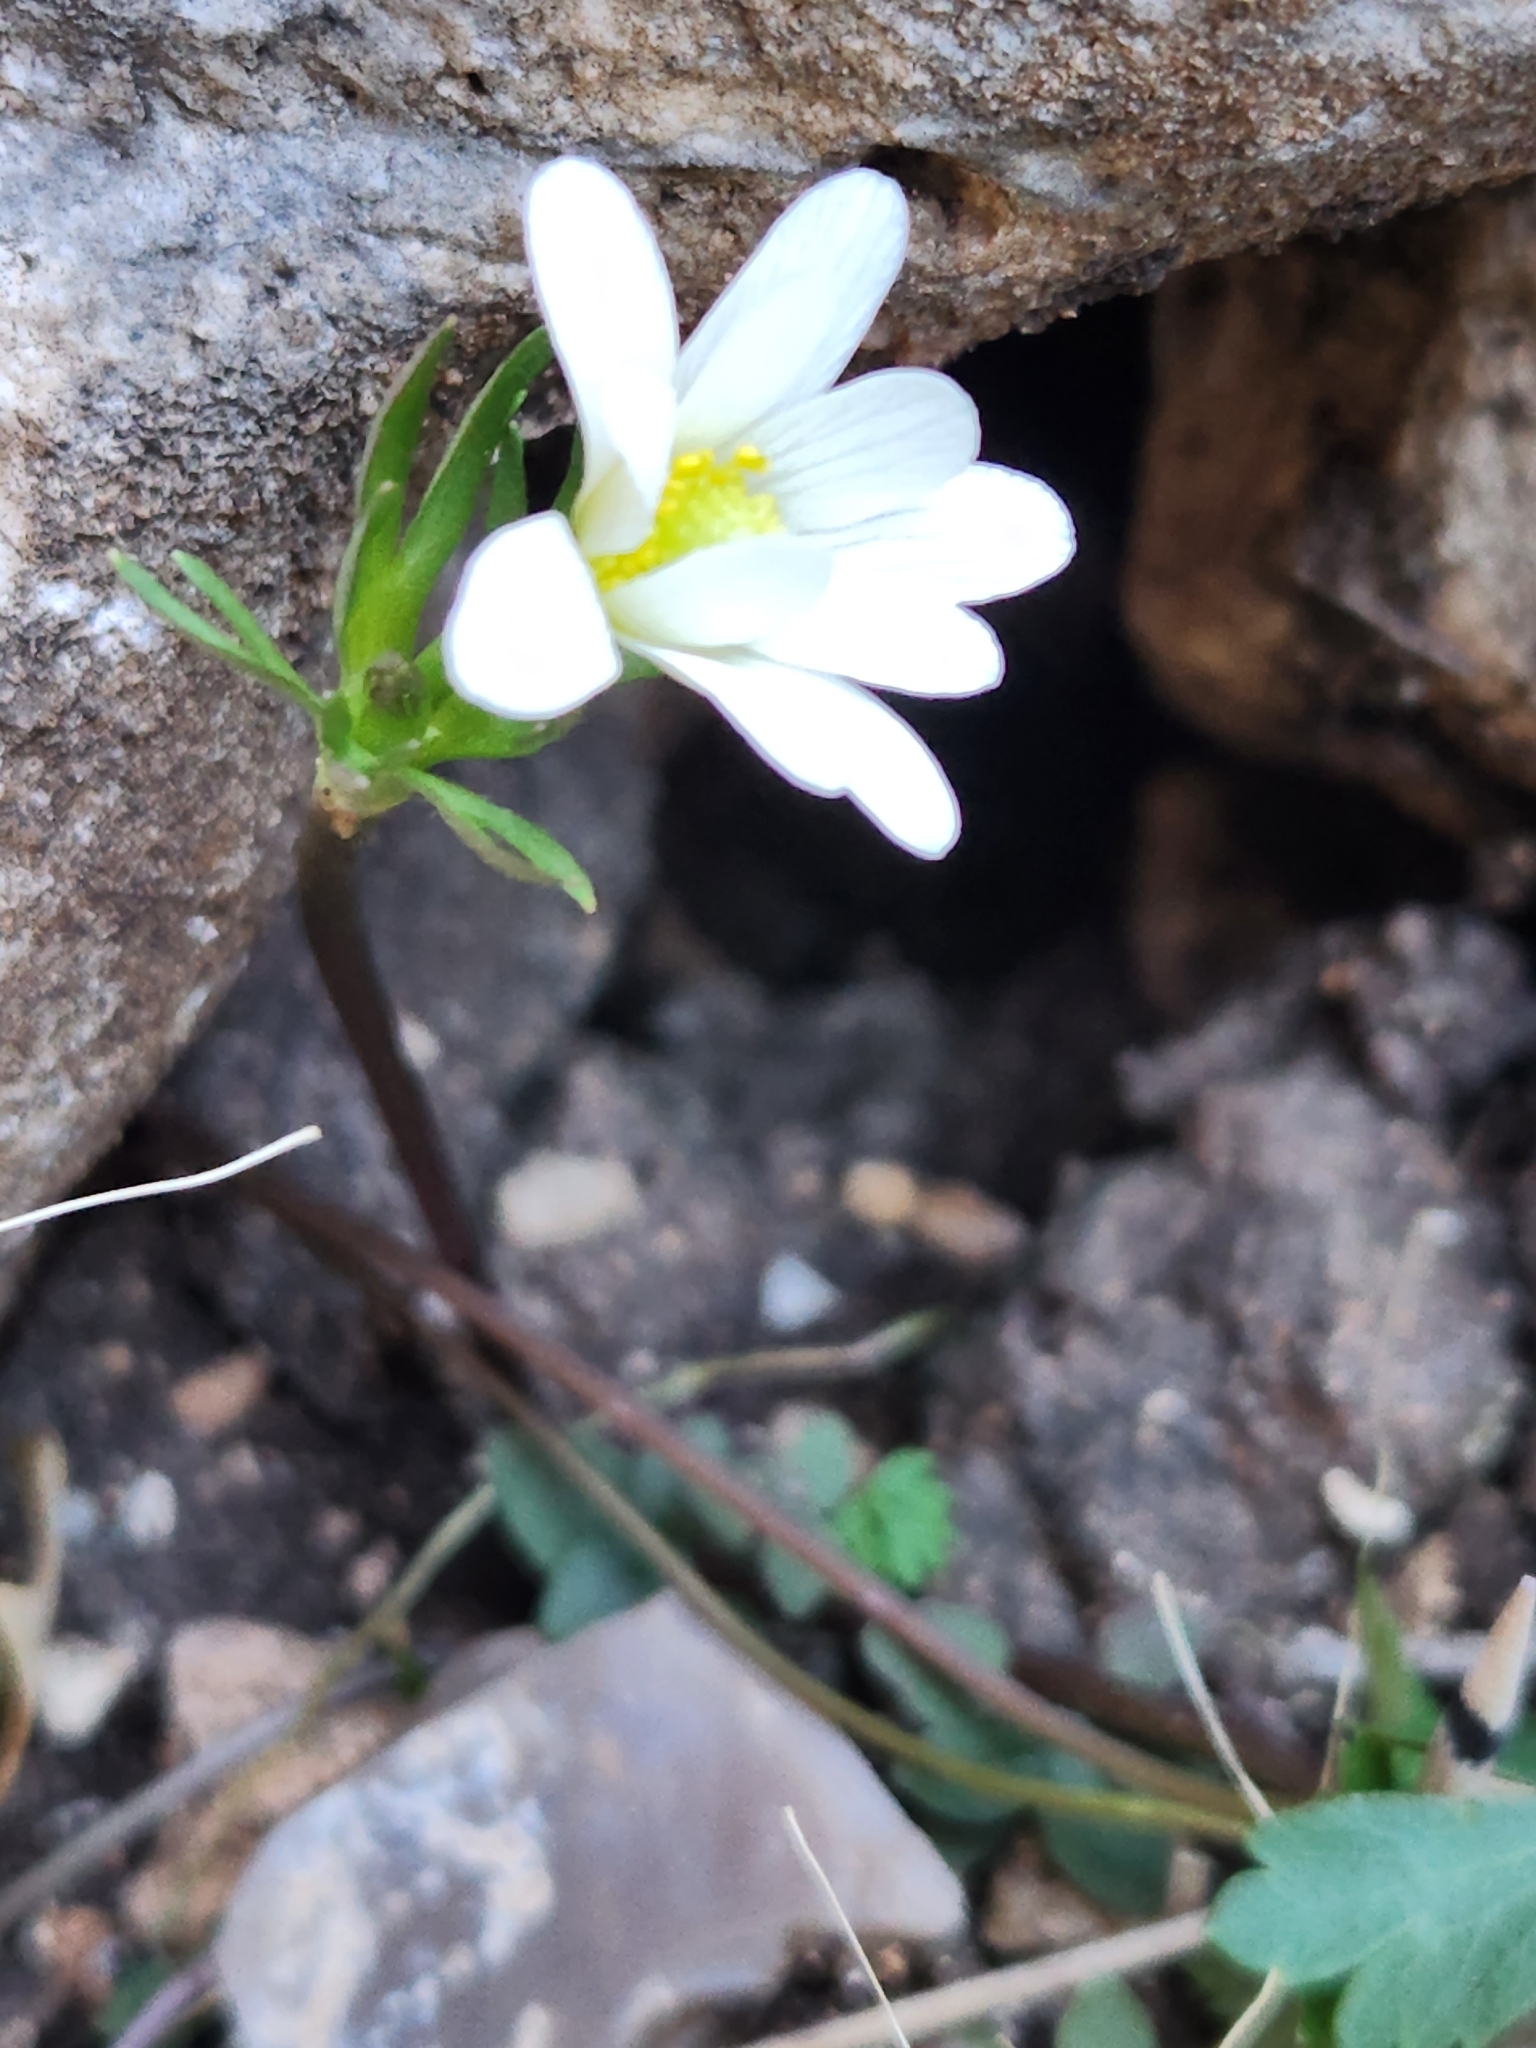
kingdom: Plantae
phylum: Tracheophyta
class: Magnoliopsida
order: Ranunculales
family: Ranunculaceae
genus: Anemone
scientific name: Anemone edwardsiana
